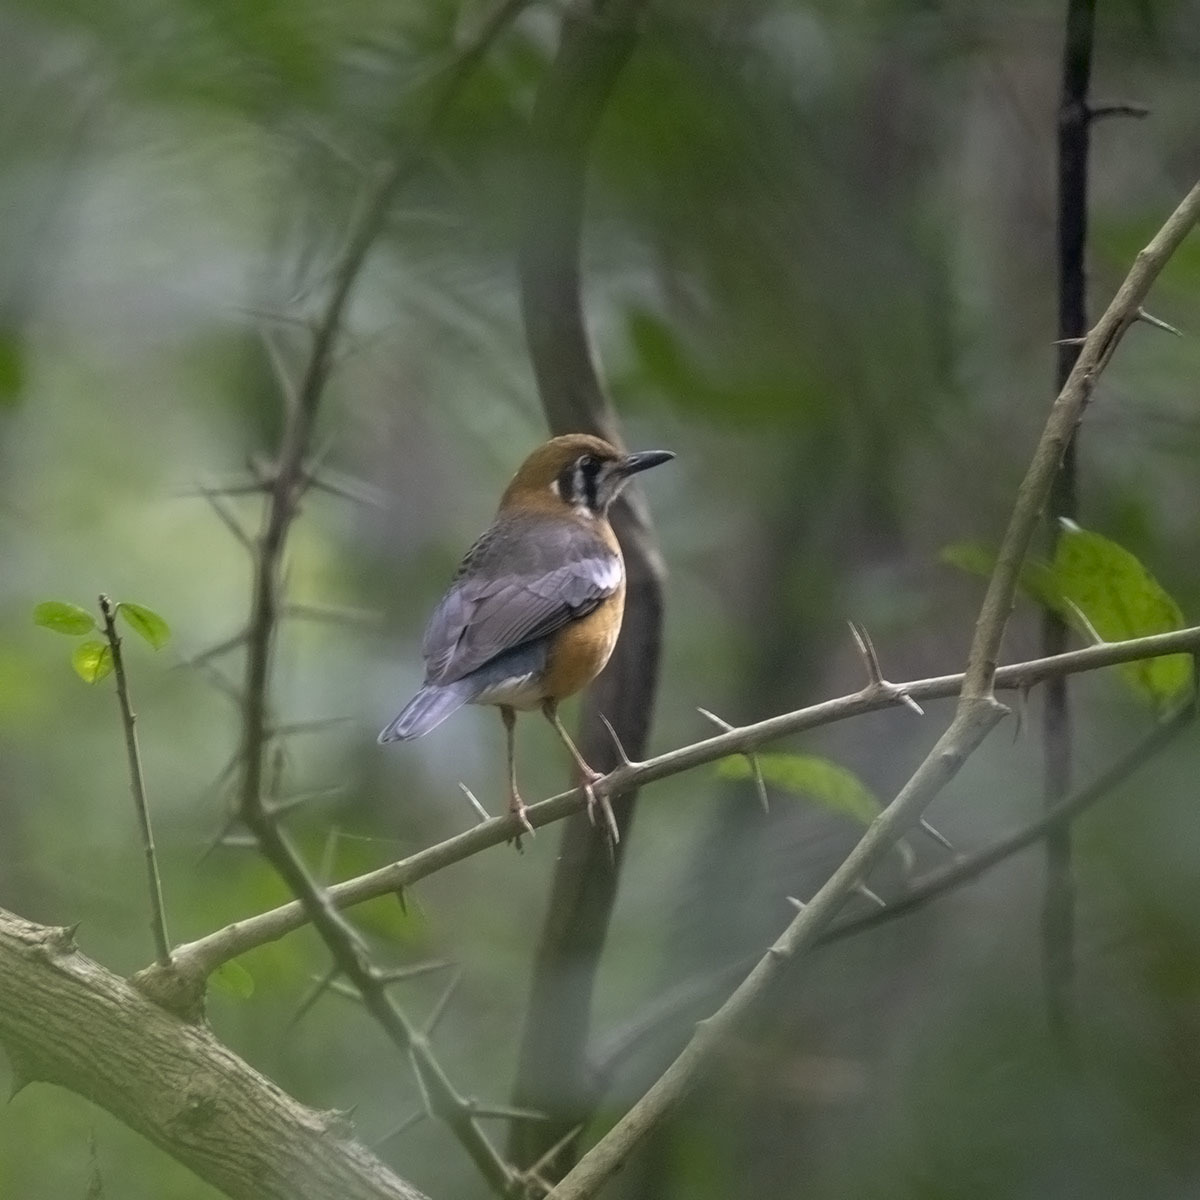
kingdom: Animalia
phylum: Chordata
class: Aves
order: Passeriformes
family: Turdidae
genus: Geokichla
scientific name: Geokichla citrina
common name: Orange-headed thrush
